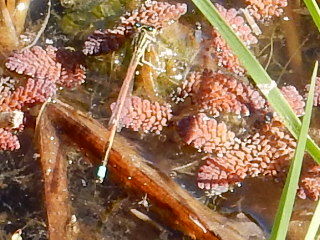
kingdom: Animalia
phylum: Arthropoda
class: Insecta
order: Odonata
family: Coenagrionidae
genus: Ischnura
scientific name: Ischnura aurora
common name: Gossamer damselfly
